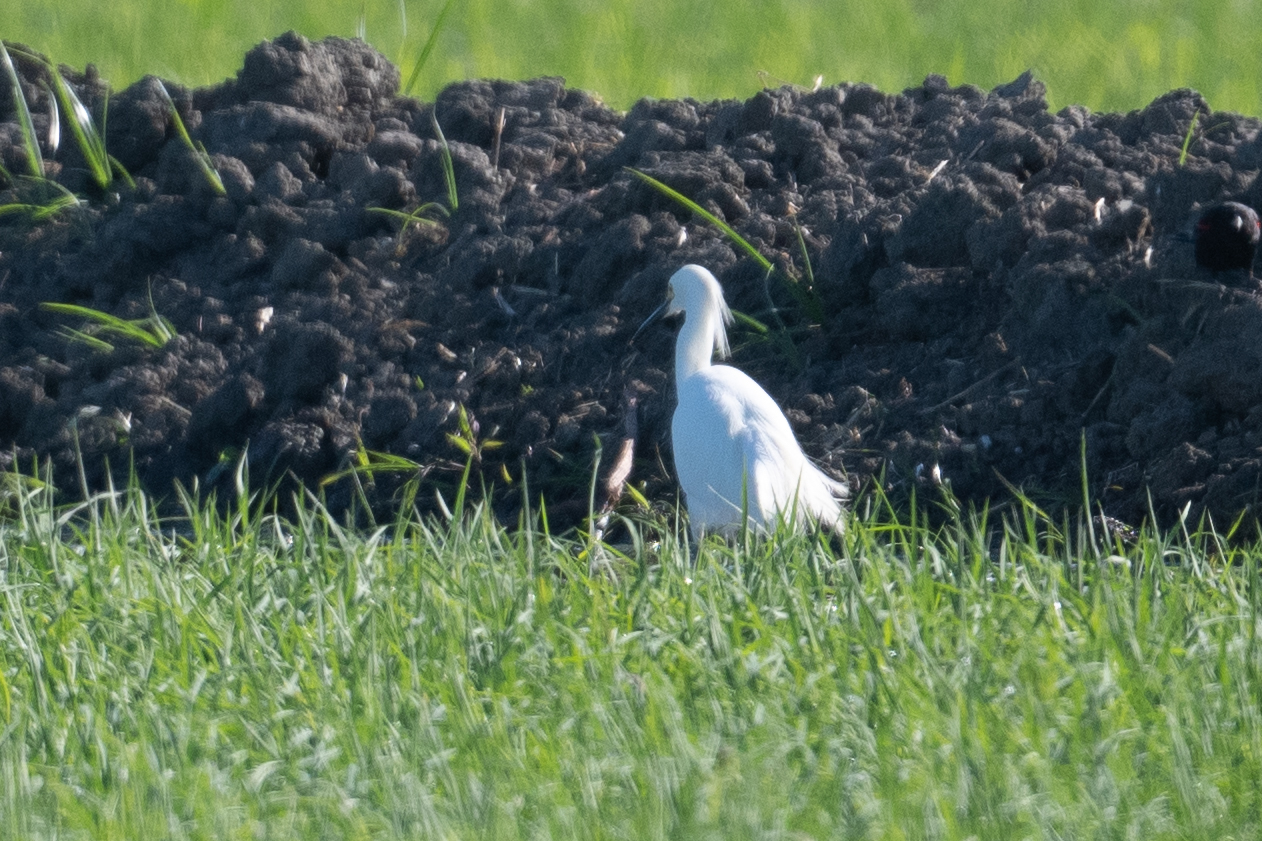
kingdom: Animalia
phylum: Chordata
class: Aves
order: Pelecaniformes
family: Ardeidae
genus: Egretta
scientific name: Egretta thula
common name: Snowy egret
